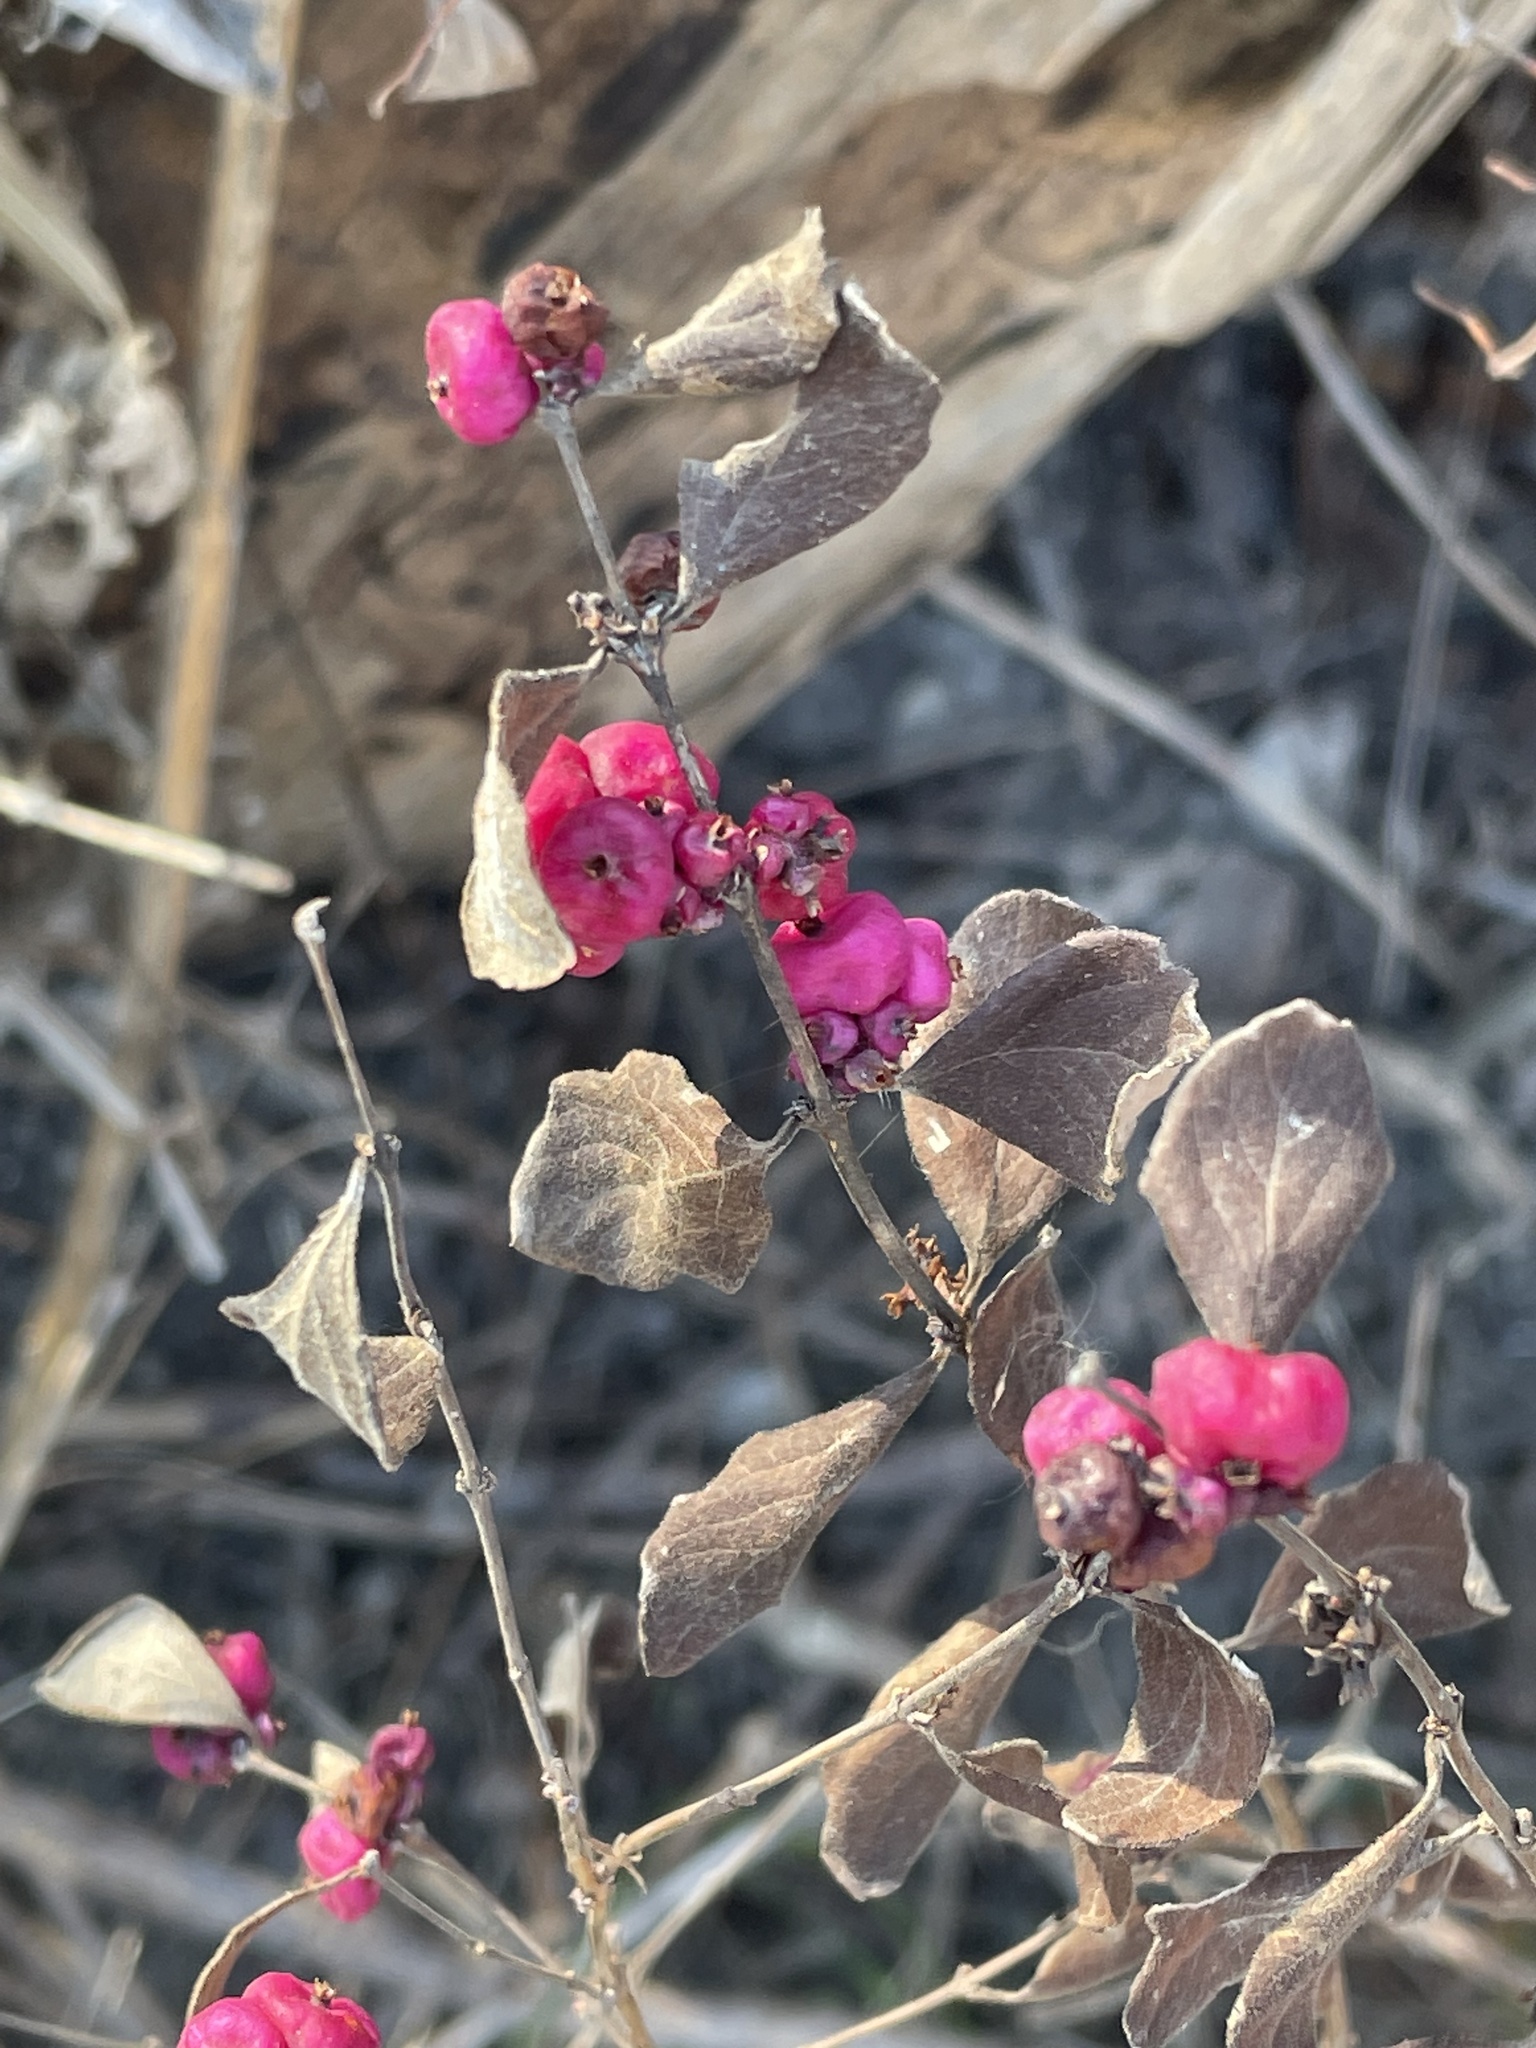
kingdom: Plantae
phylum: Tracheophyta
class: Magnoliopsida
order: Dipsacales
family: Caprifoliaceae
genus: Symphoricarpos
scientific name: Symphoricarpos orbiculatus
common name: Coralberry
